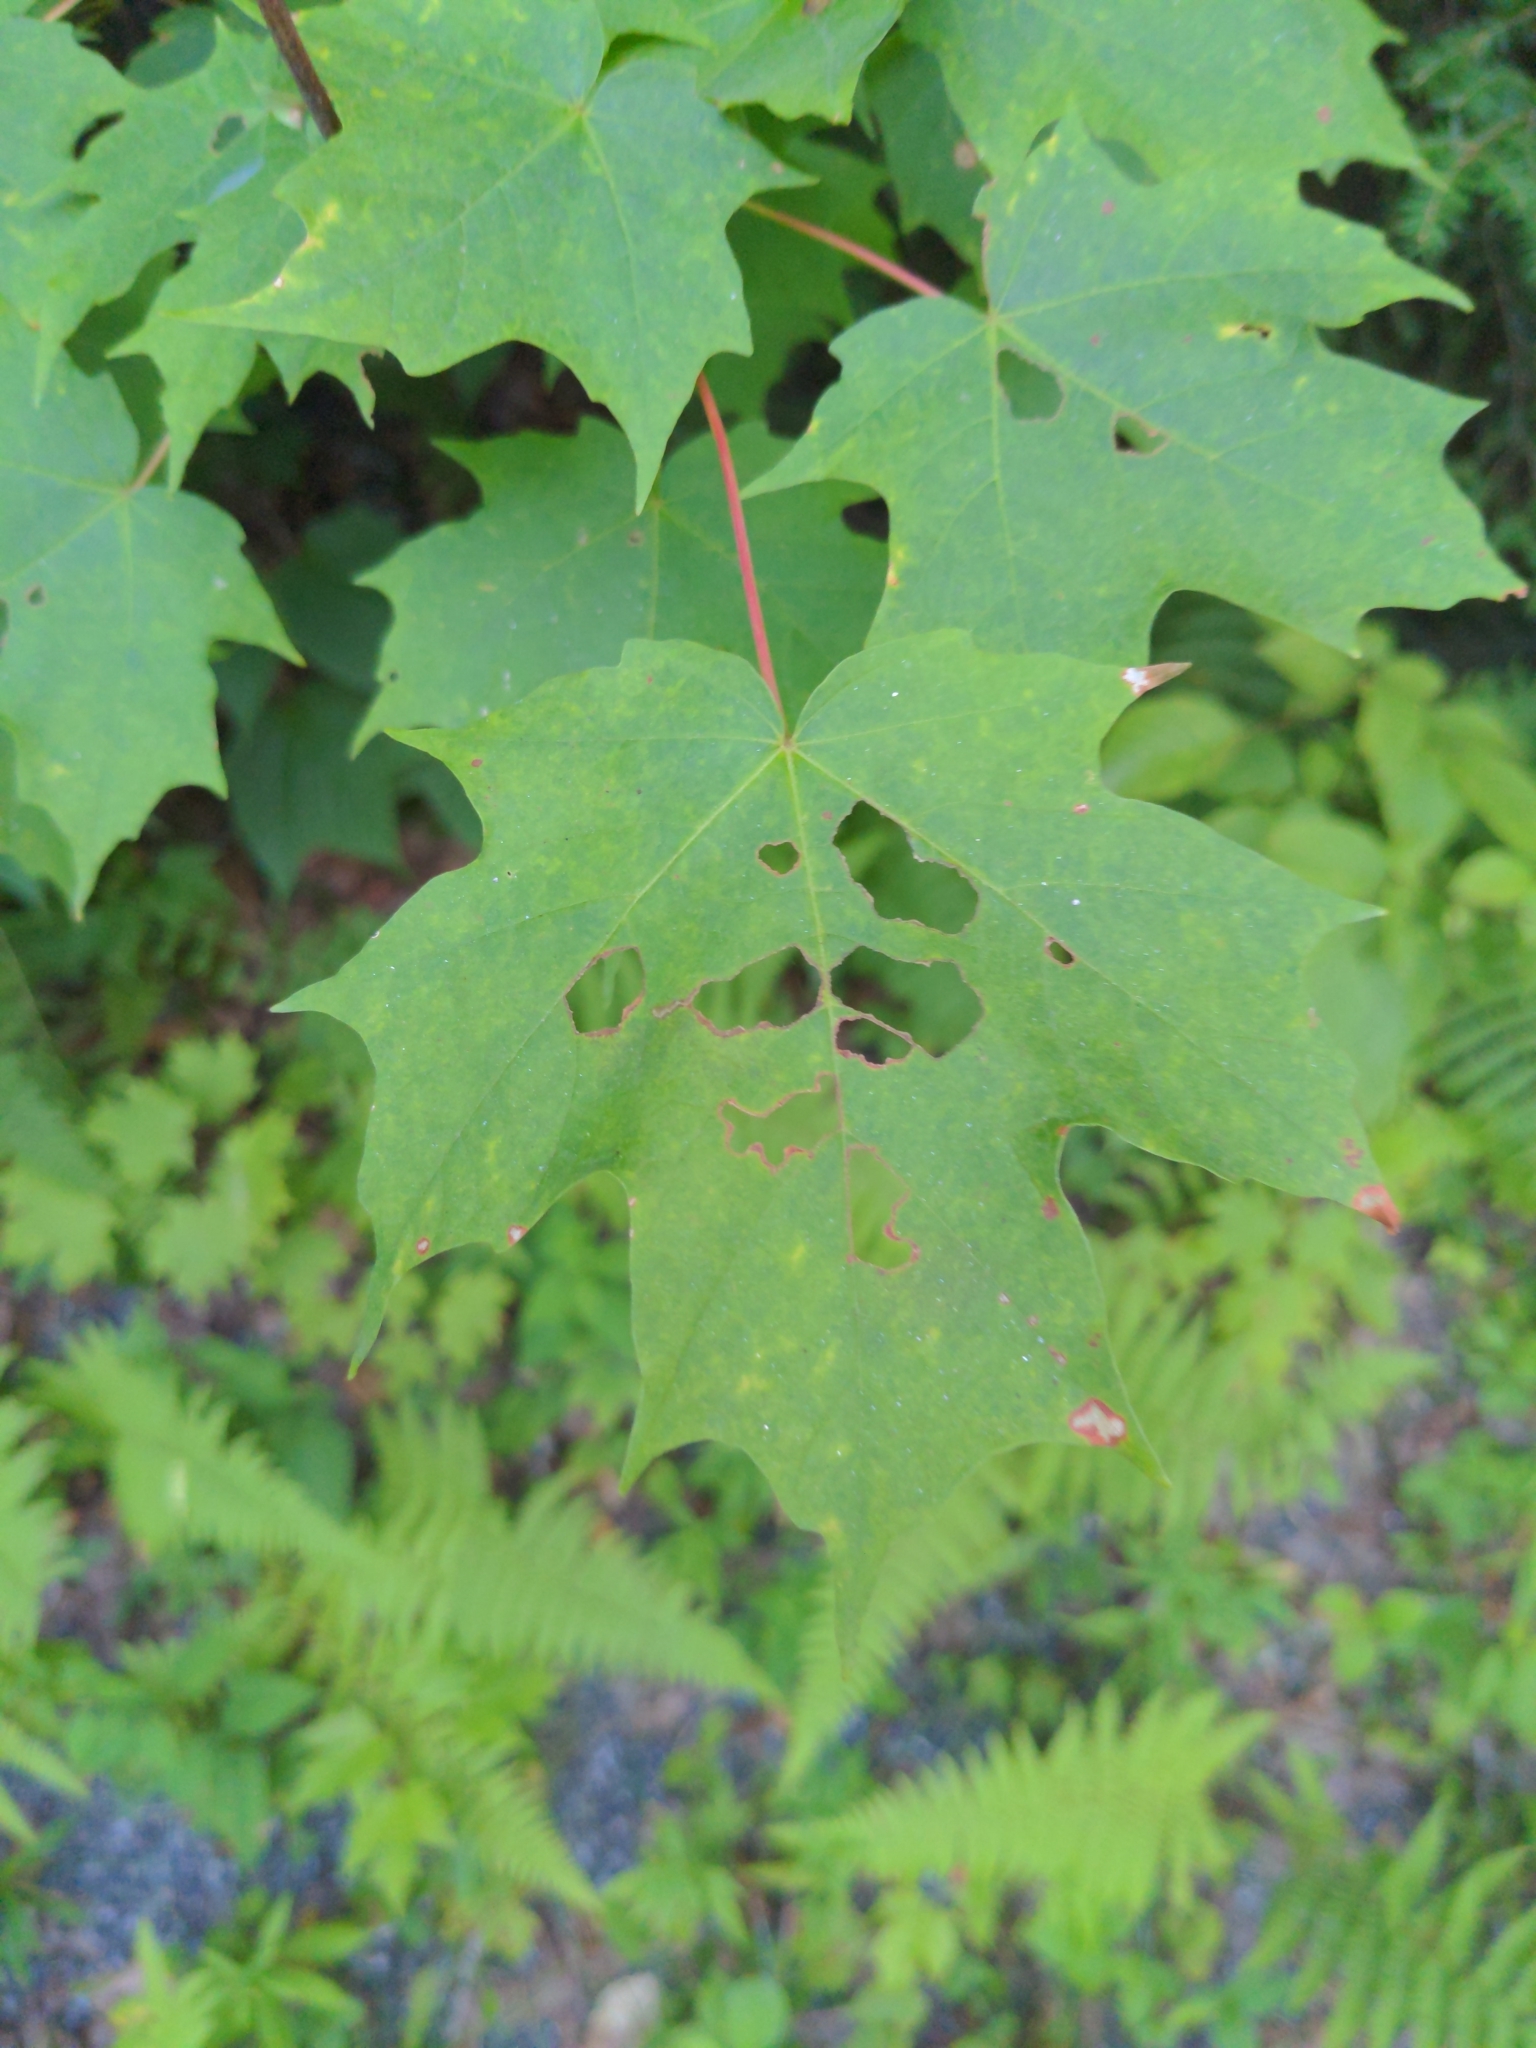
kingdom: Plantae
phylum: Tracheophyta
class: Magnoliopsida
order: Sapindales
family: Sapindaceae
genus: Acer
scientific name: Acer saccharum
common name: Sugar maple
